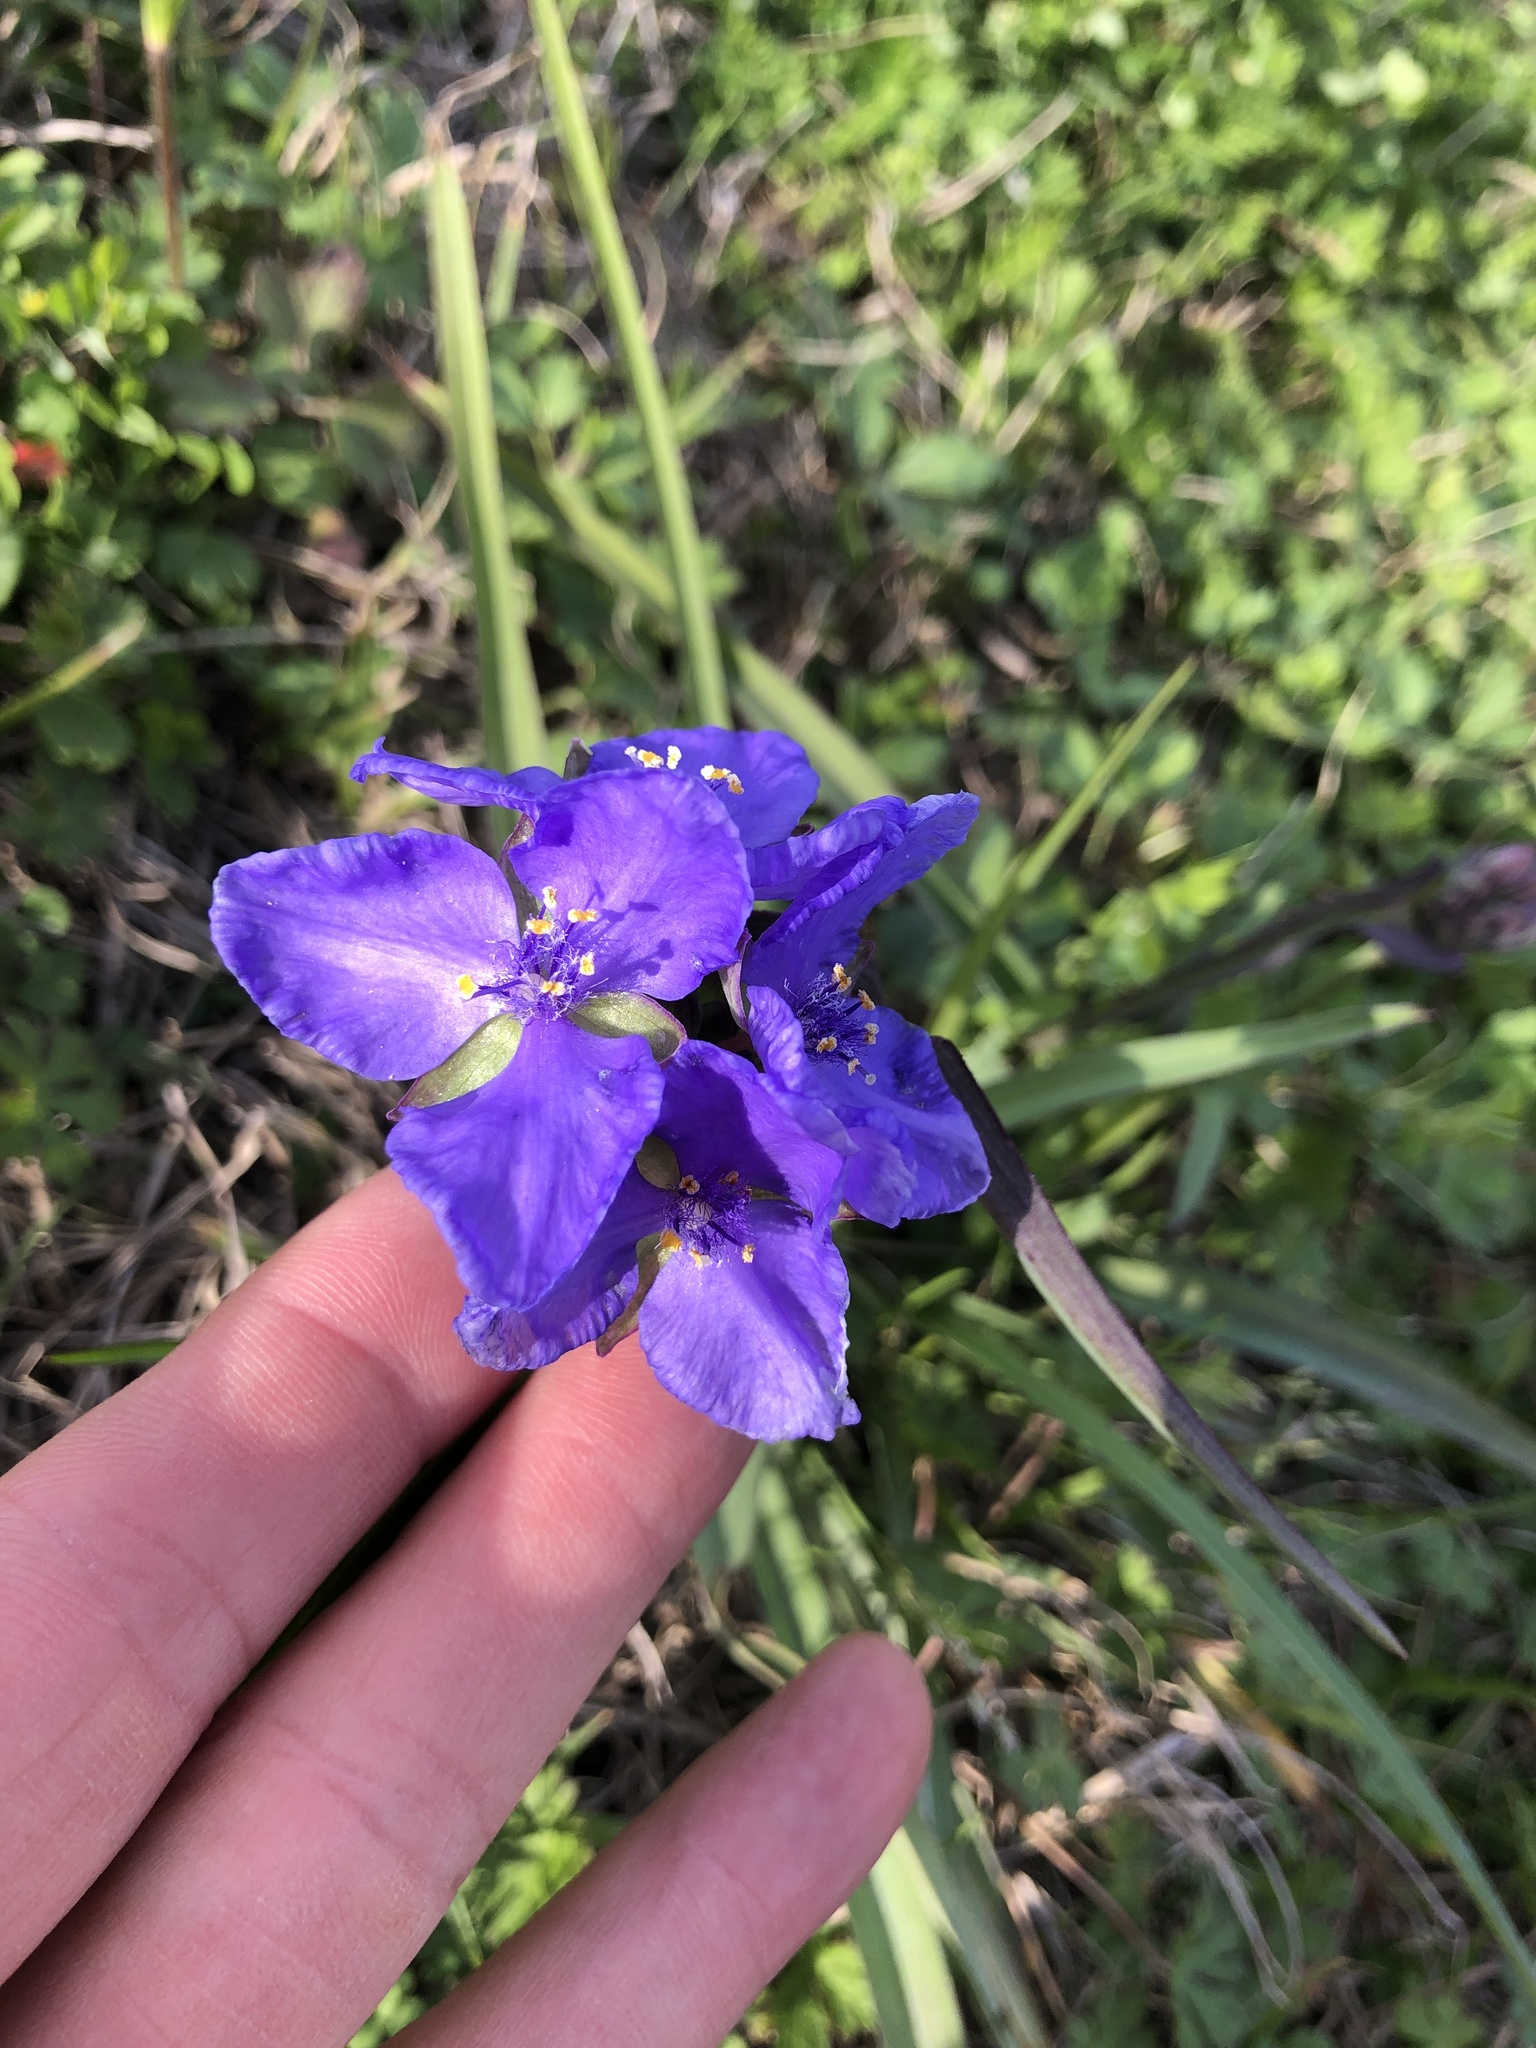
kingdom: Plantae
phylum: Tracheophyta
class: Liliopsida
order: Commelinales
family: Commelinaceae
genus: Tradescantia
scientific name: Tradescantia ohiensis
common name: Ohio spiderwort
